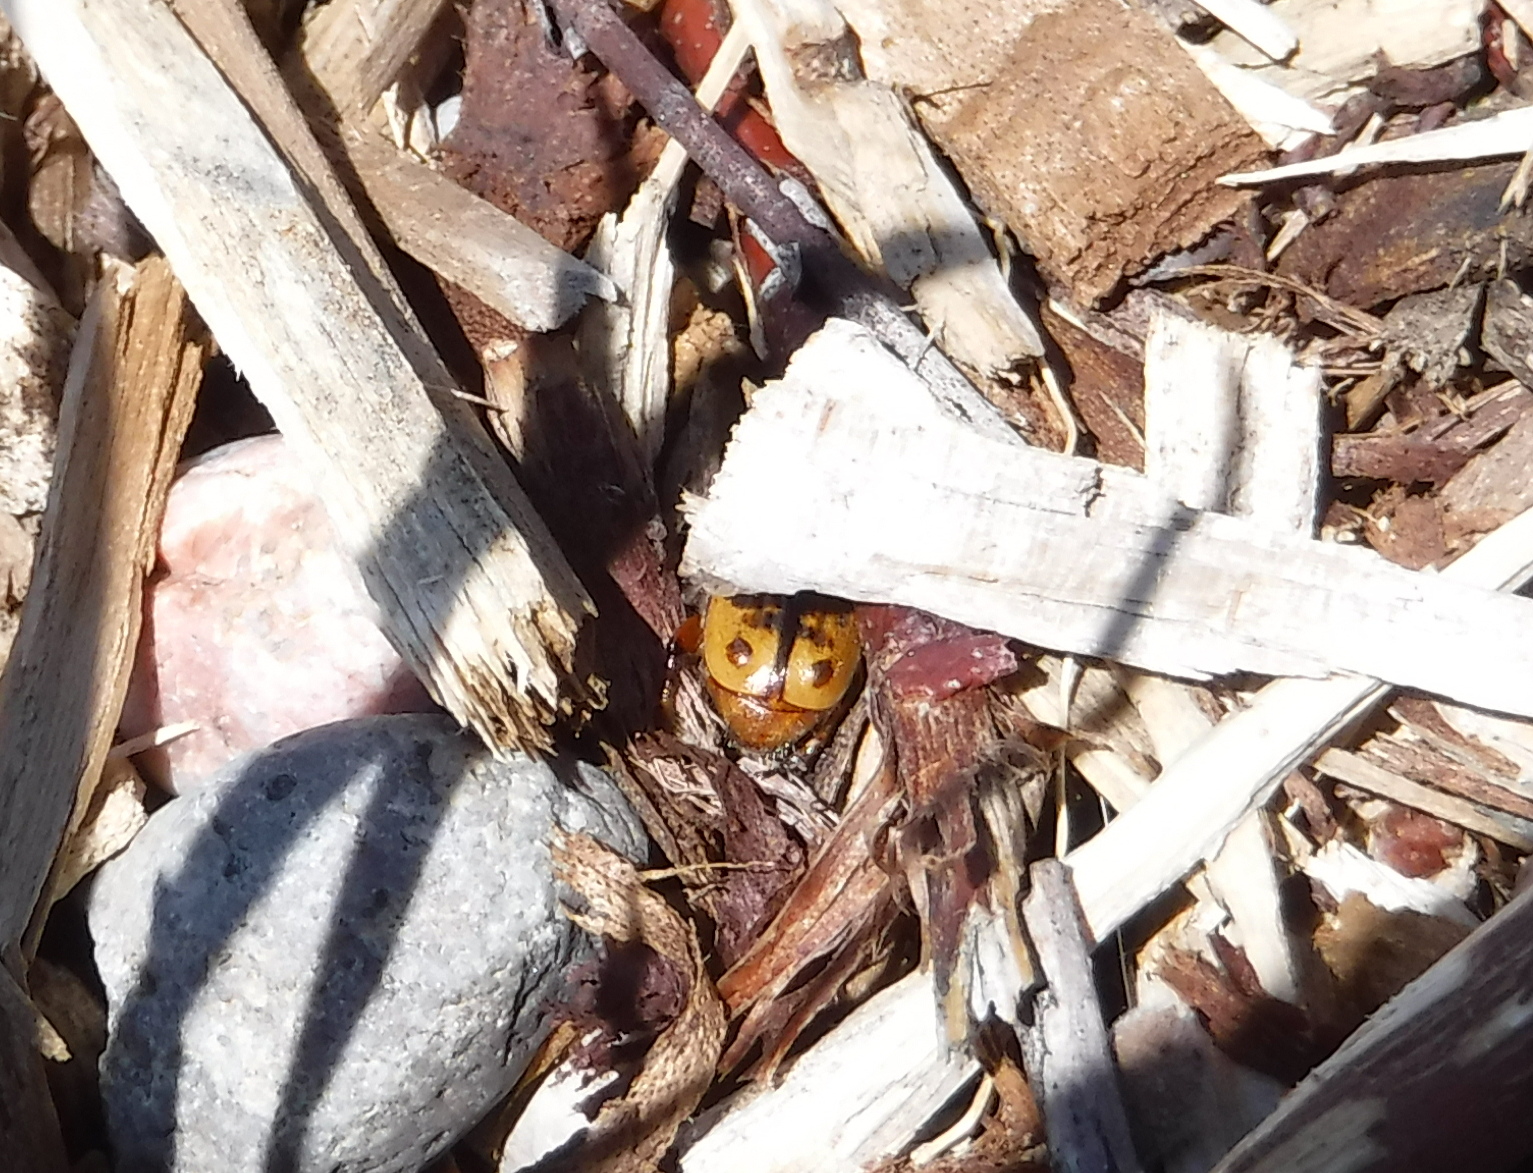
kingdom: Animalia
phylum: Arthropoda
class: Insecta
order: Coleoptera
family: Scarabaeidae
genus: Euphoria
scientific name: Euphoria kernii
